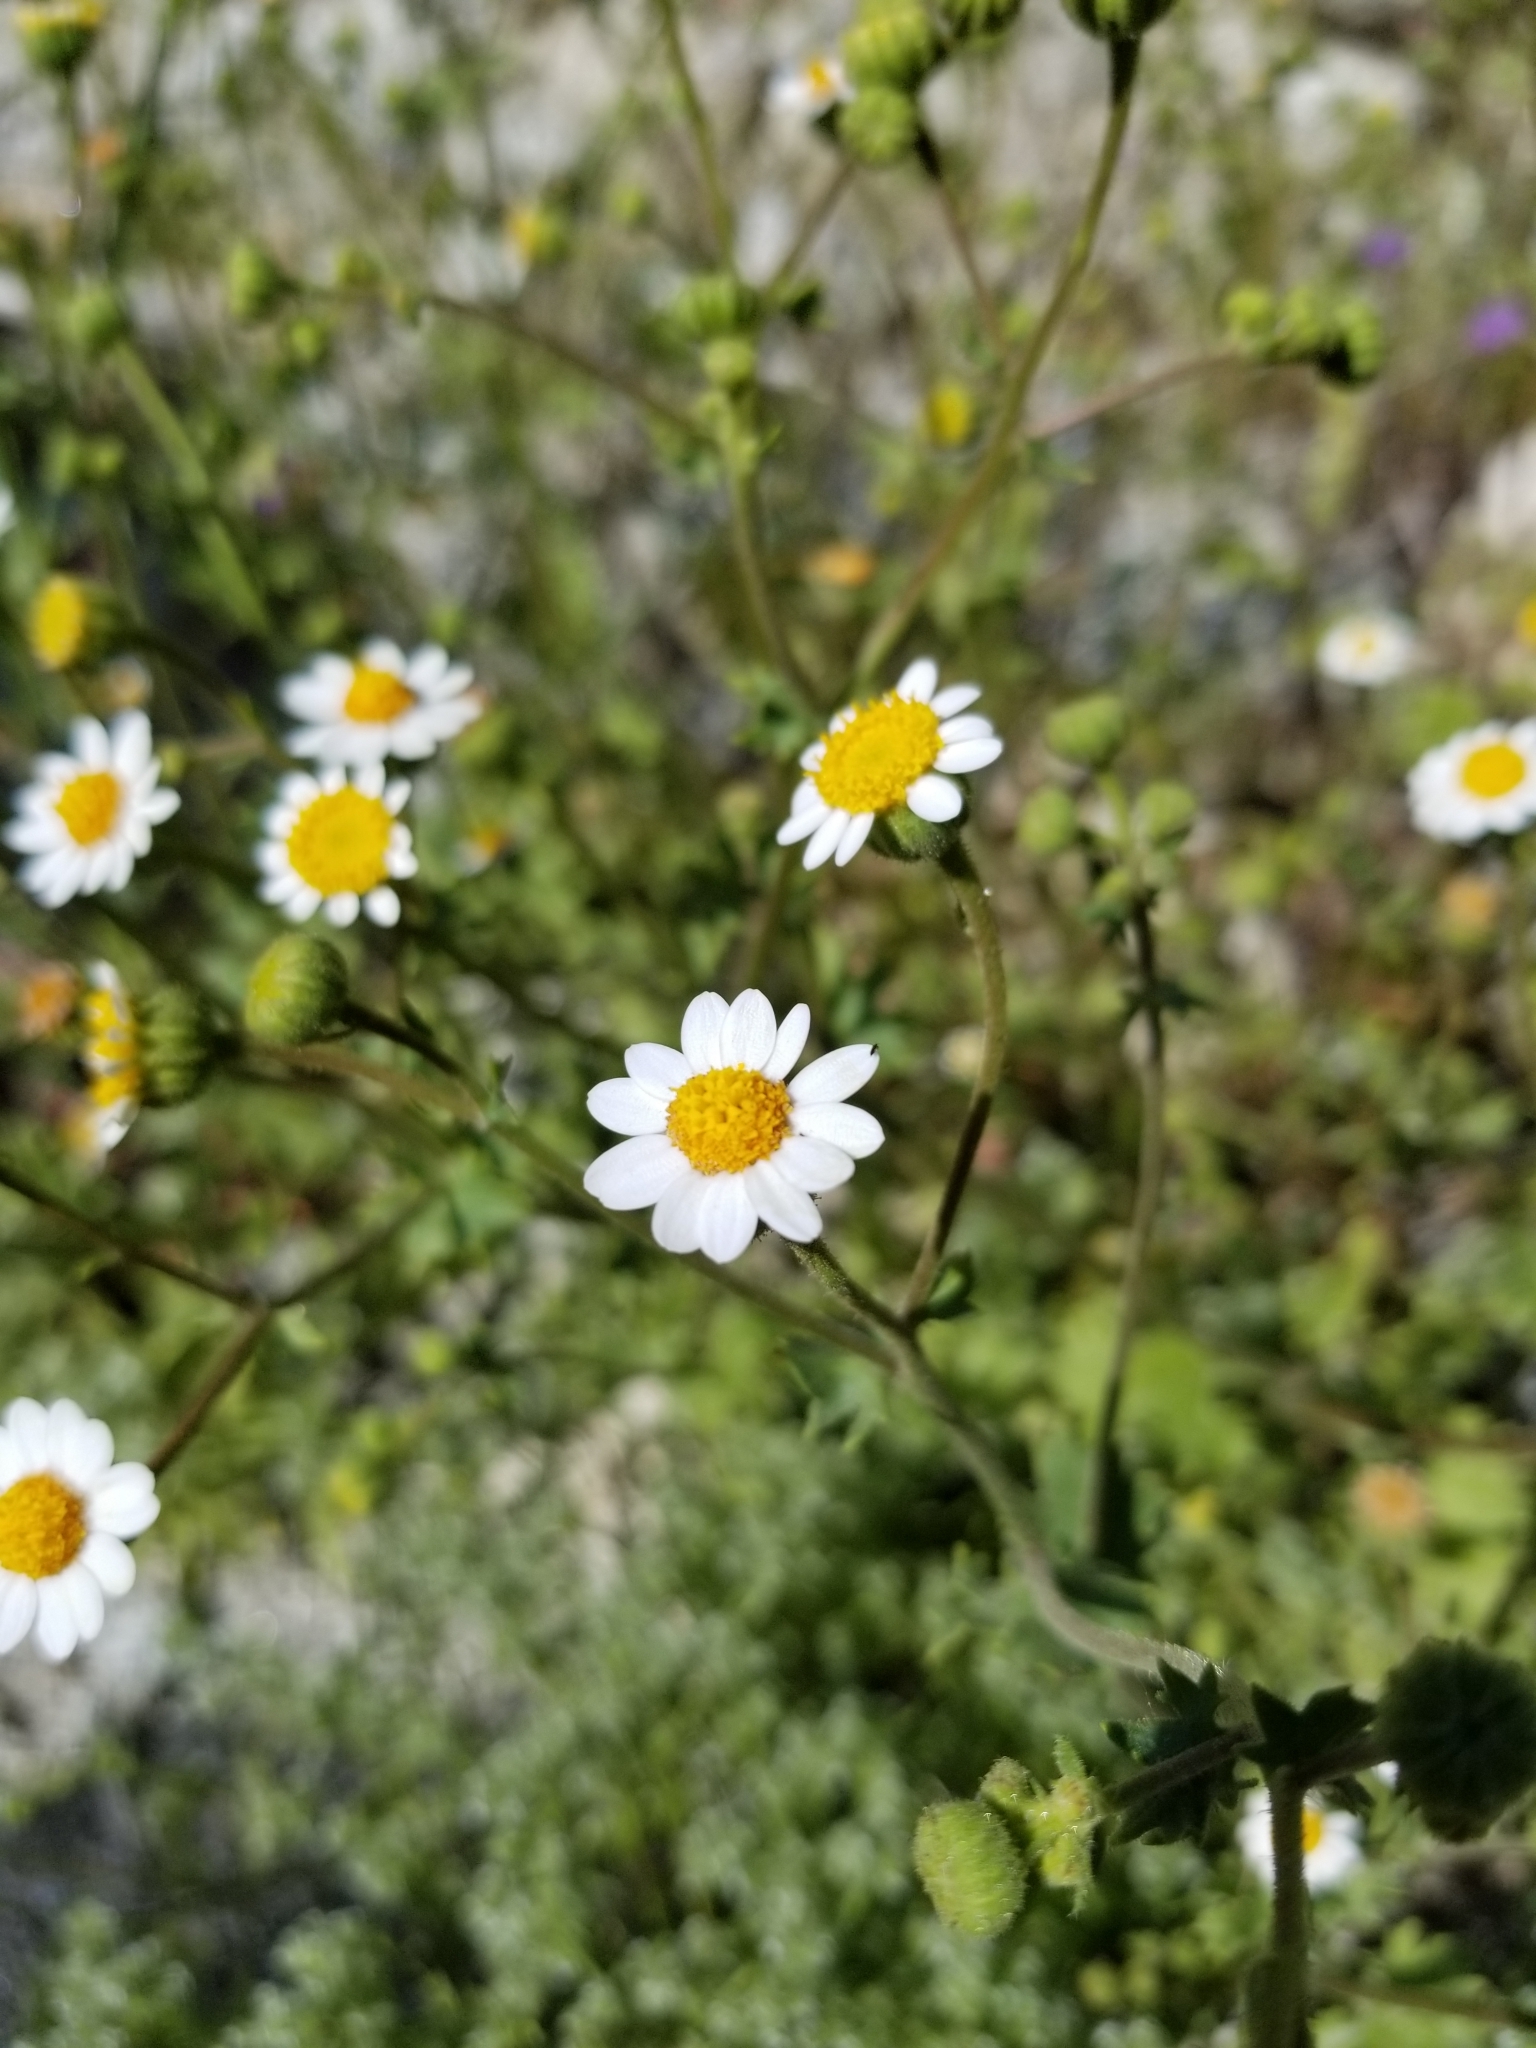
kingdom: Plantae
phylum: Tracheophyta
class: Magnoliopsida
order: Asterales
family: Asteraceae
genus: Laphamia
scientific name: Laphamia emoryi
